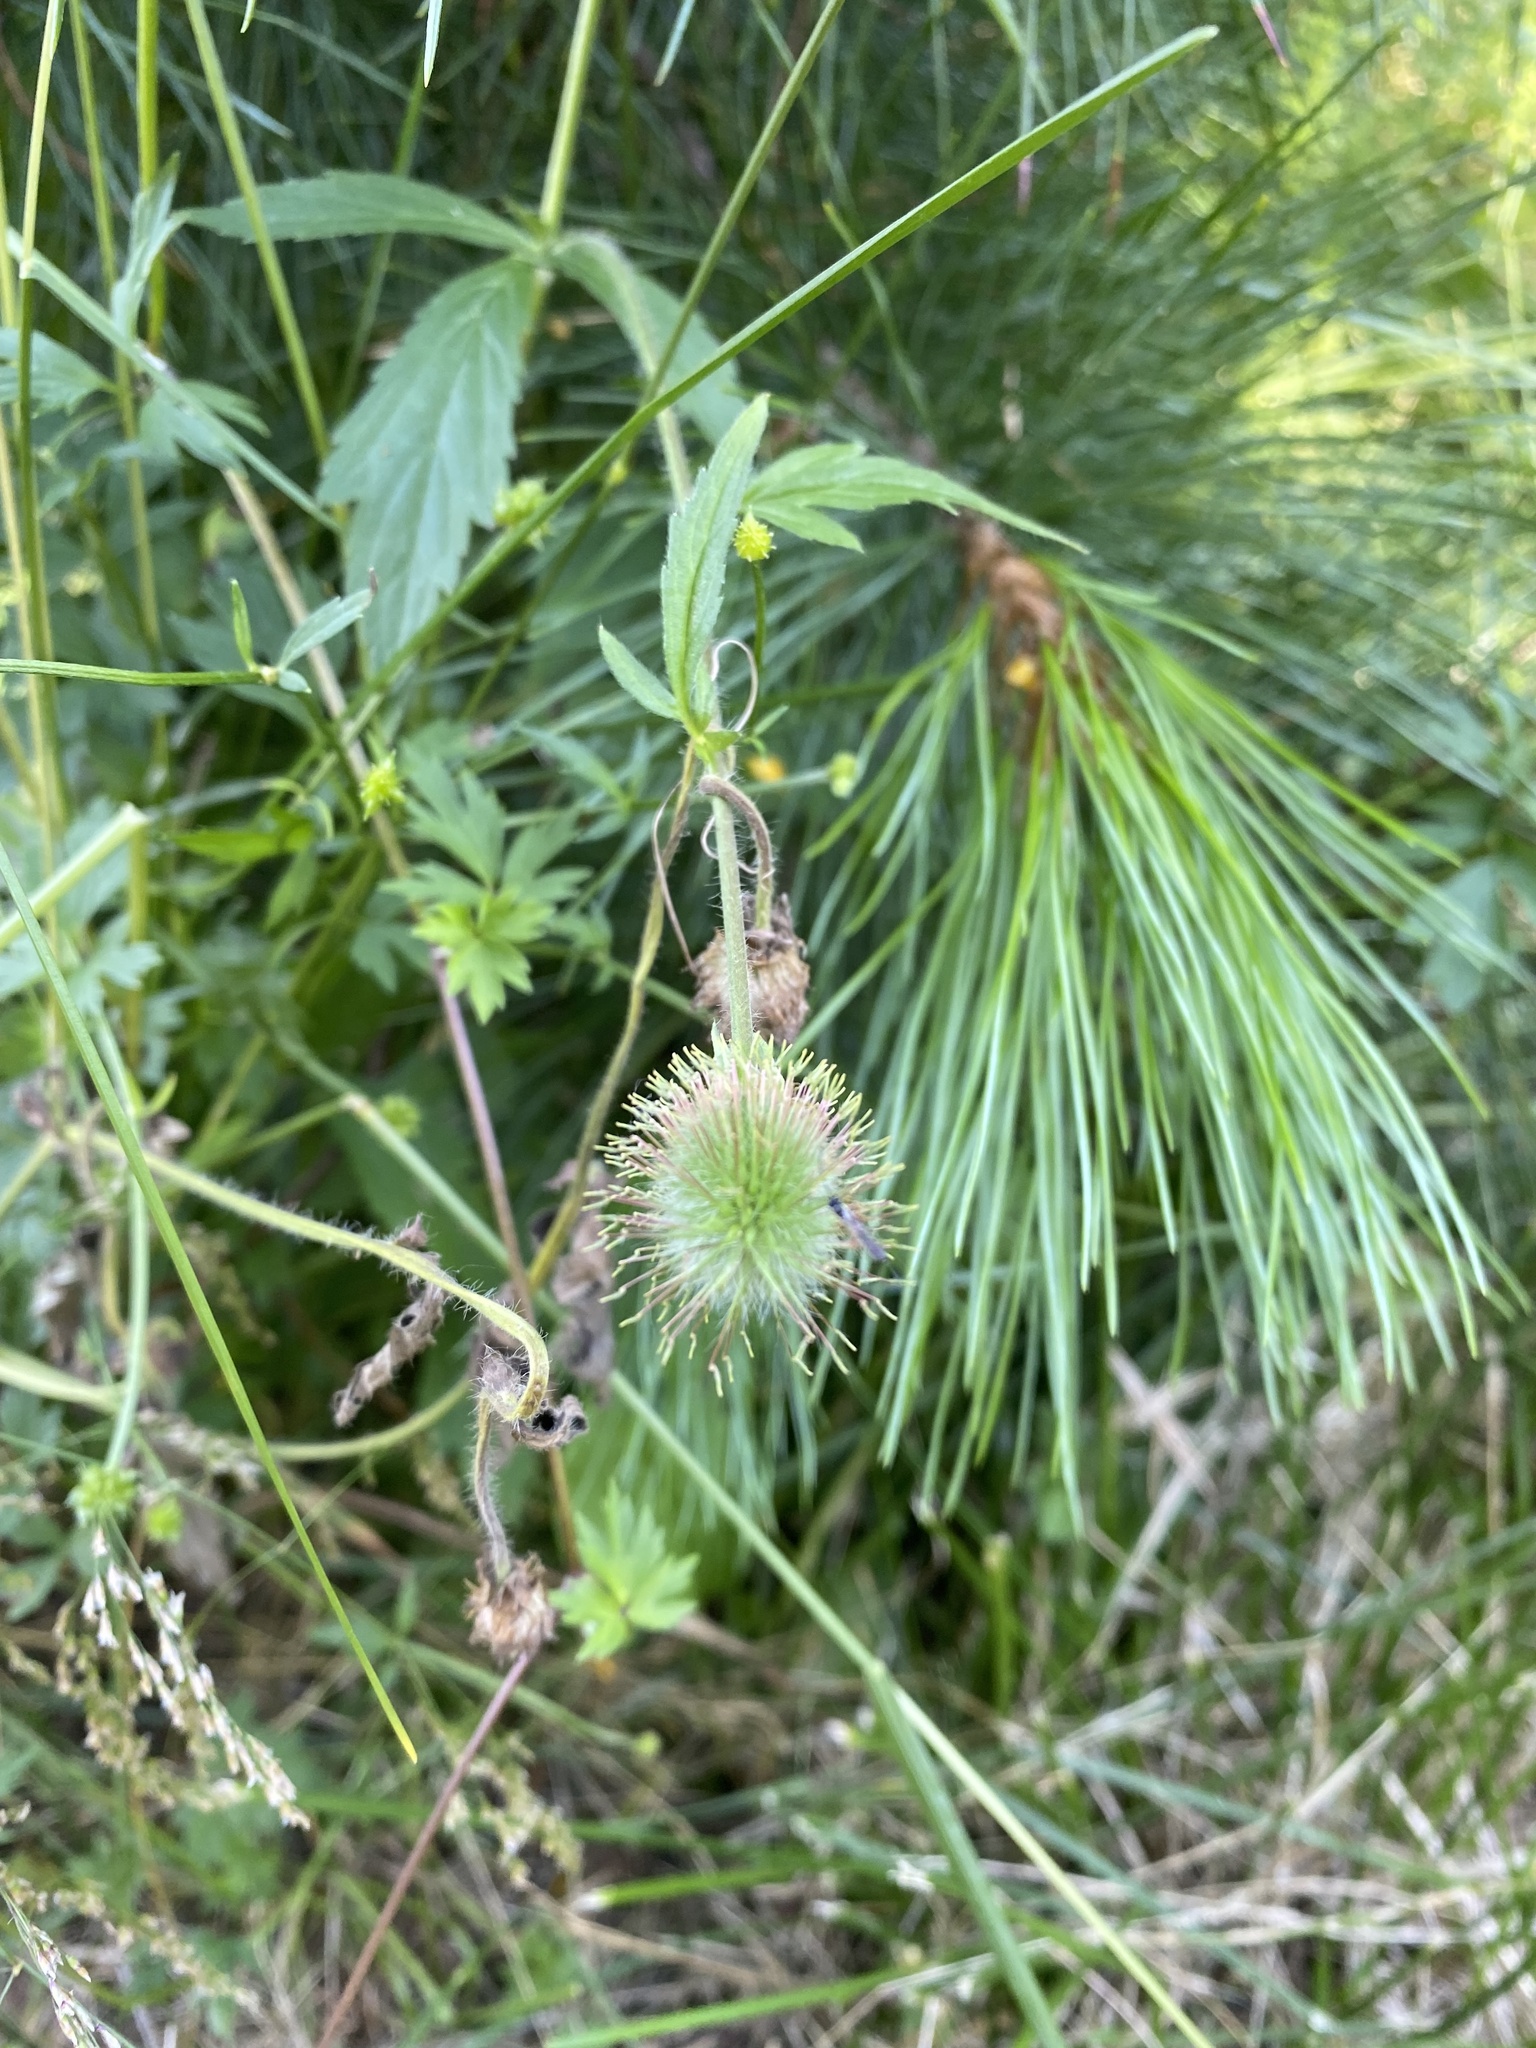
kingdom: Plantae
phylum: Tracheophyta
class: Magnoliopsida
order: Rosales
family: Rosaceae
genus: Geum
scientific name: Geum aleppicum
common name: Yellow avens
